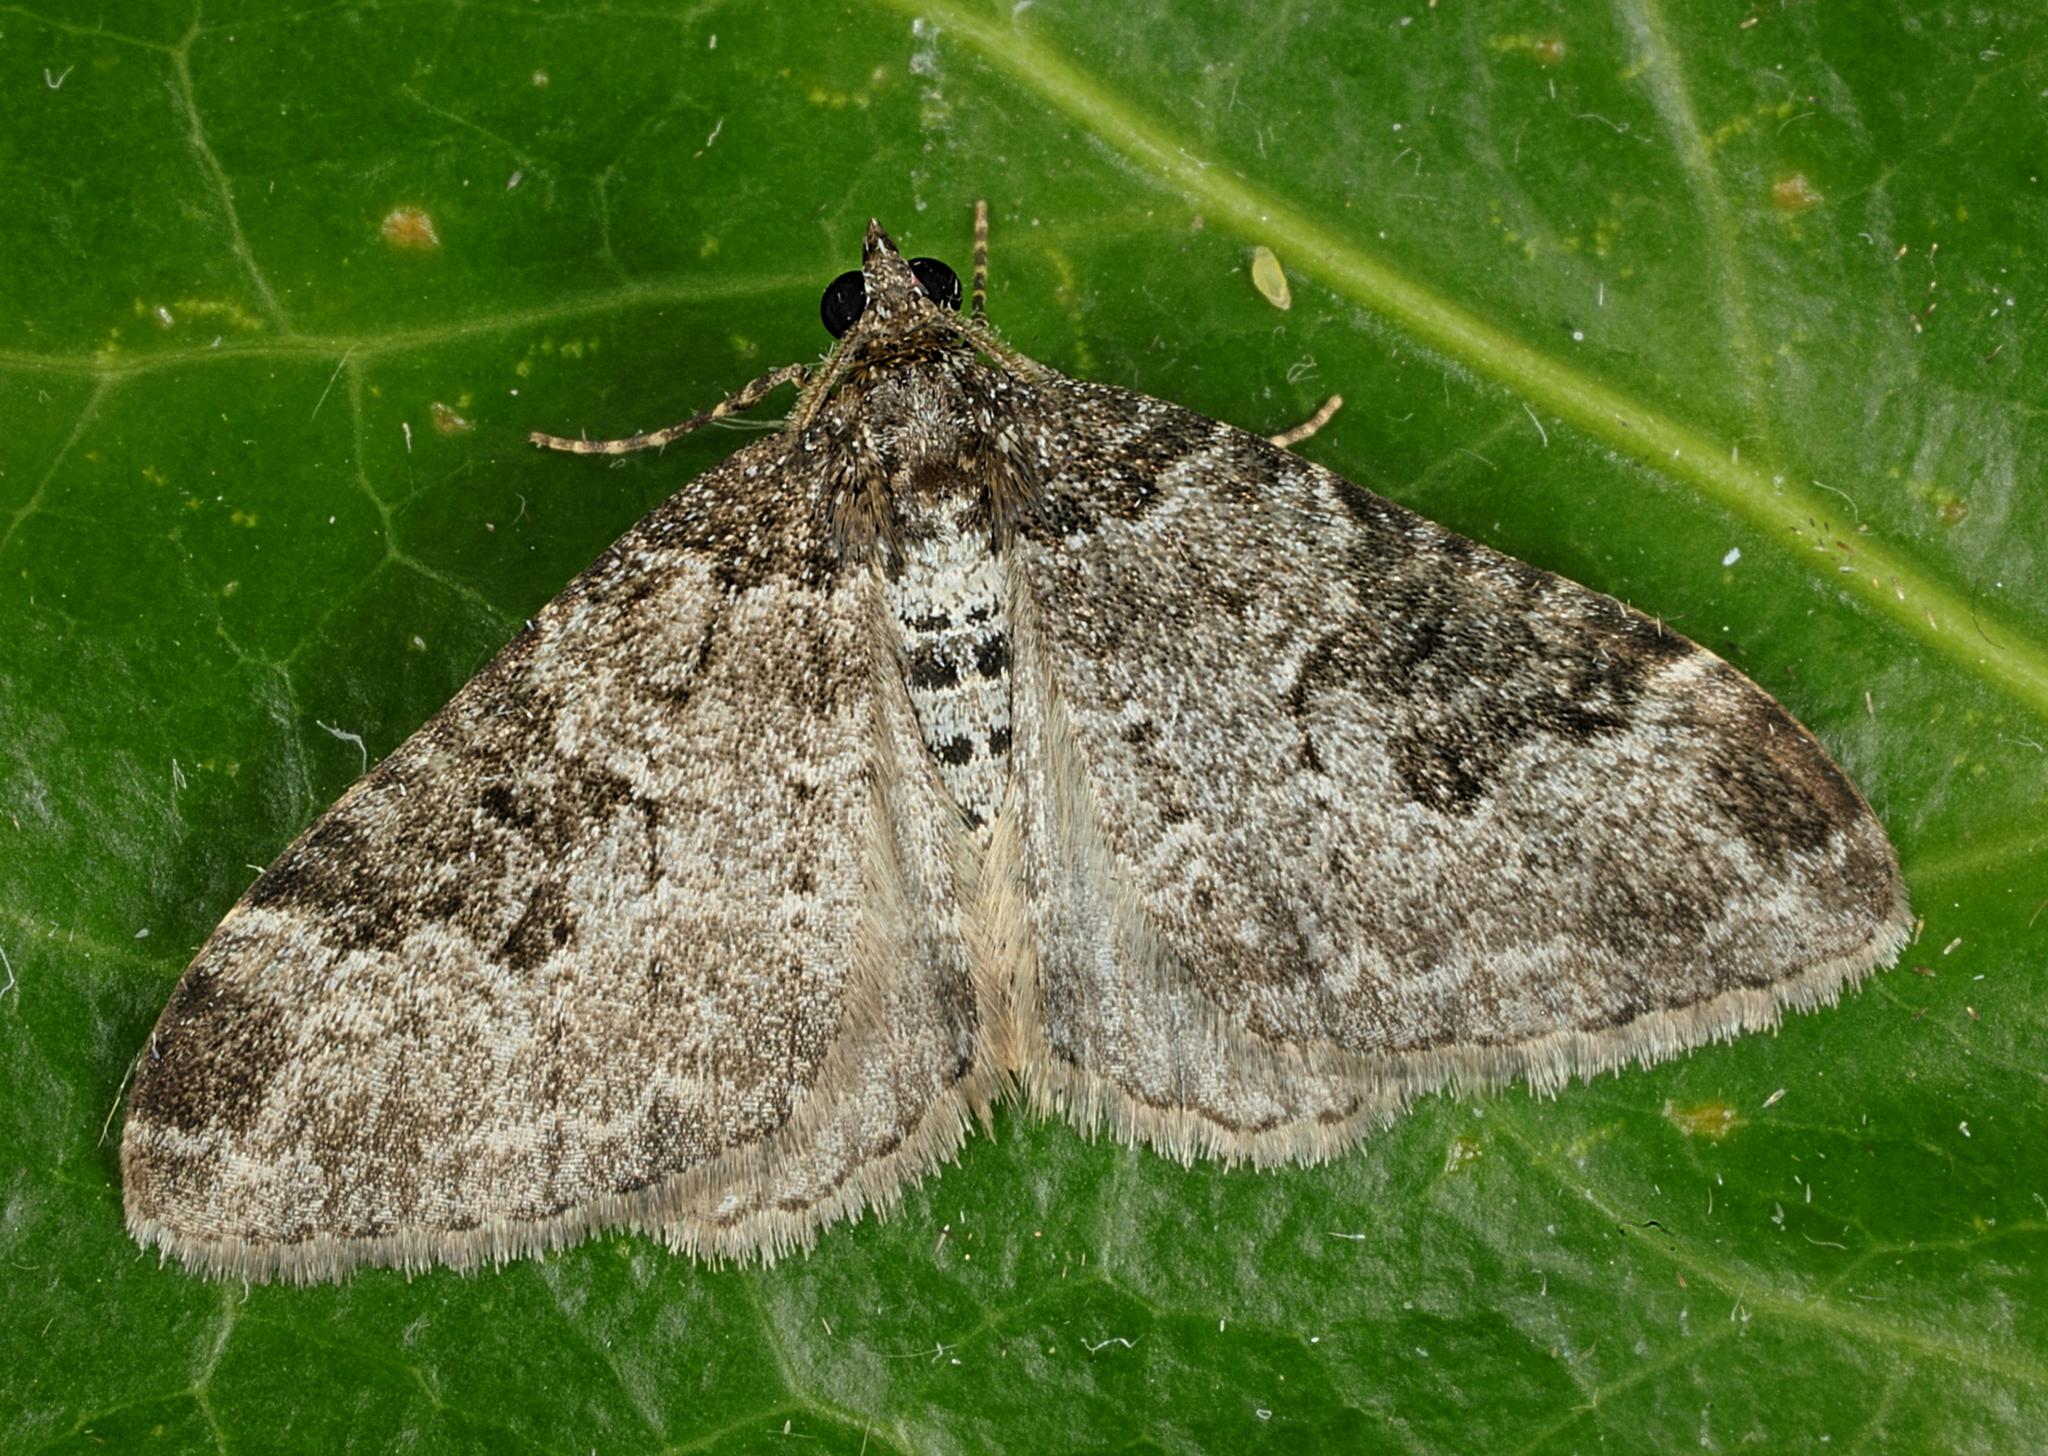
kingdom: Animalia
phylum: Arthropoda
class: Insecta
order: Lepidoptera
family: Geometridae
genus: Xanthorhoe
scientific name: Xanthorhoe fluctuata
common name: Garden carpet
